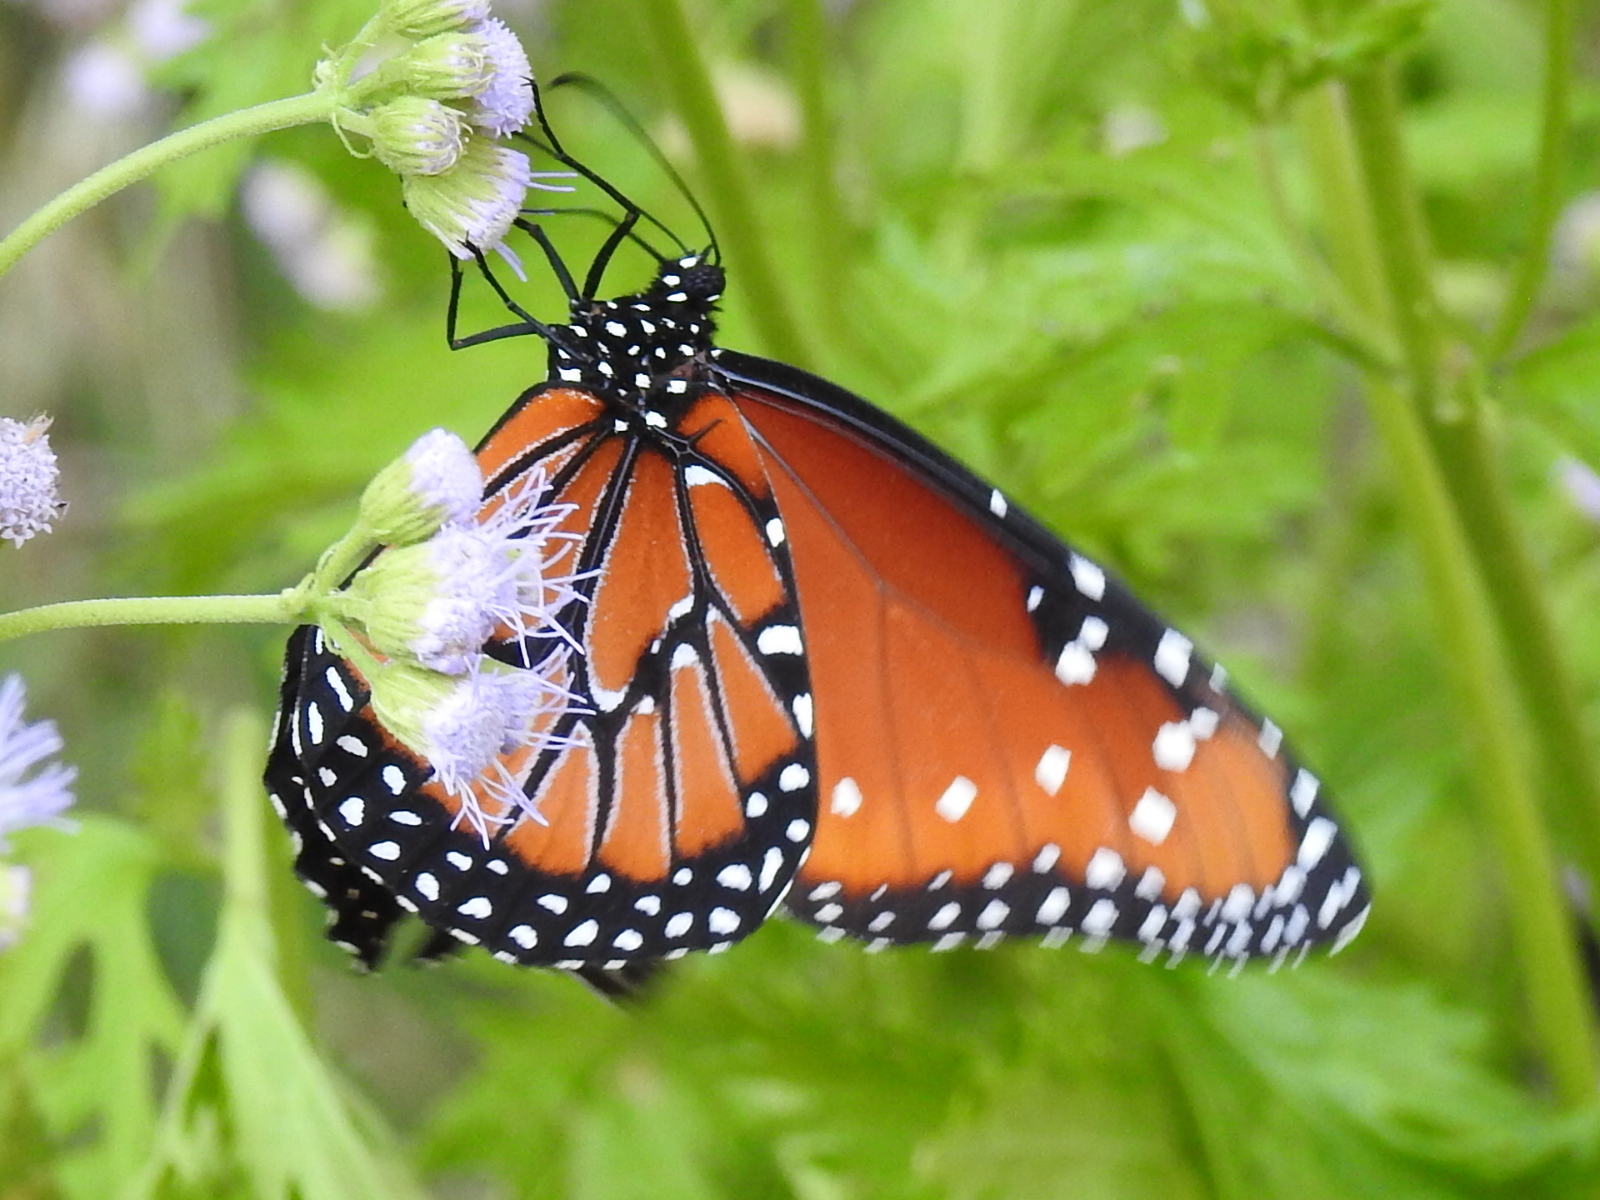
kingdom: Animalia
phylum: Arthropoda
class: Insecta
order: Lepidoptera
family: Nymphalidae
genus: Danaus
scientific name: Danaus gilippus
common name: Queen
